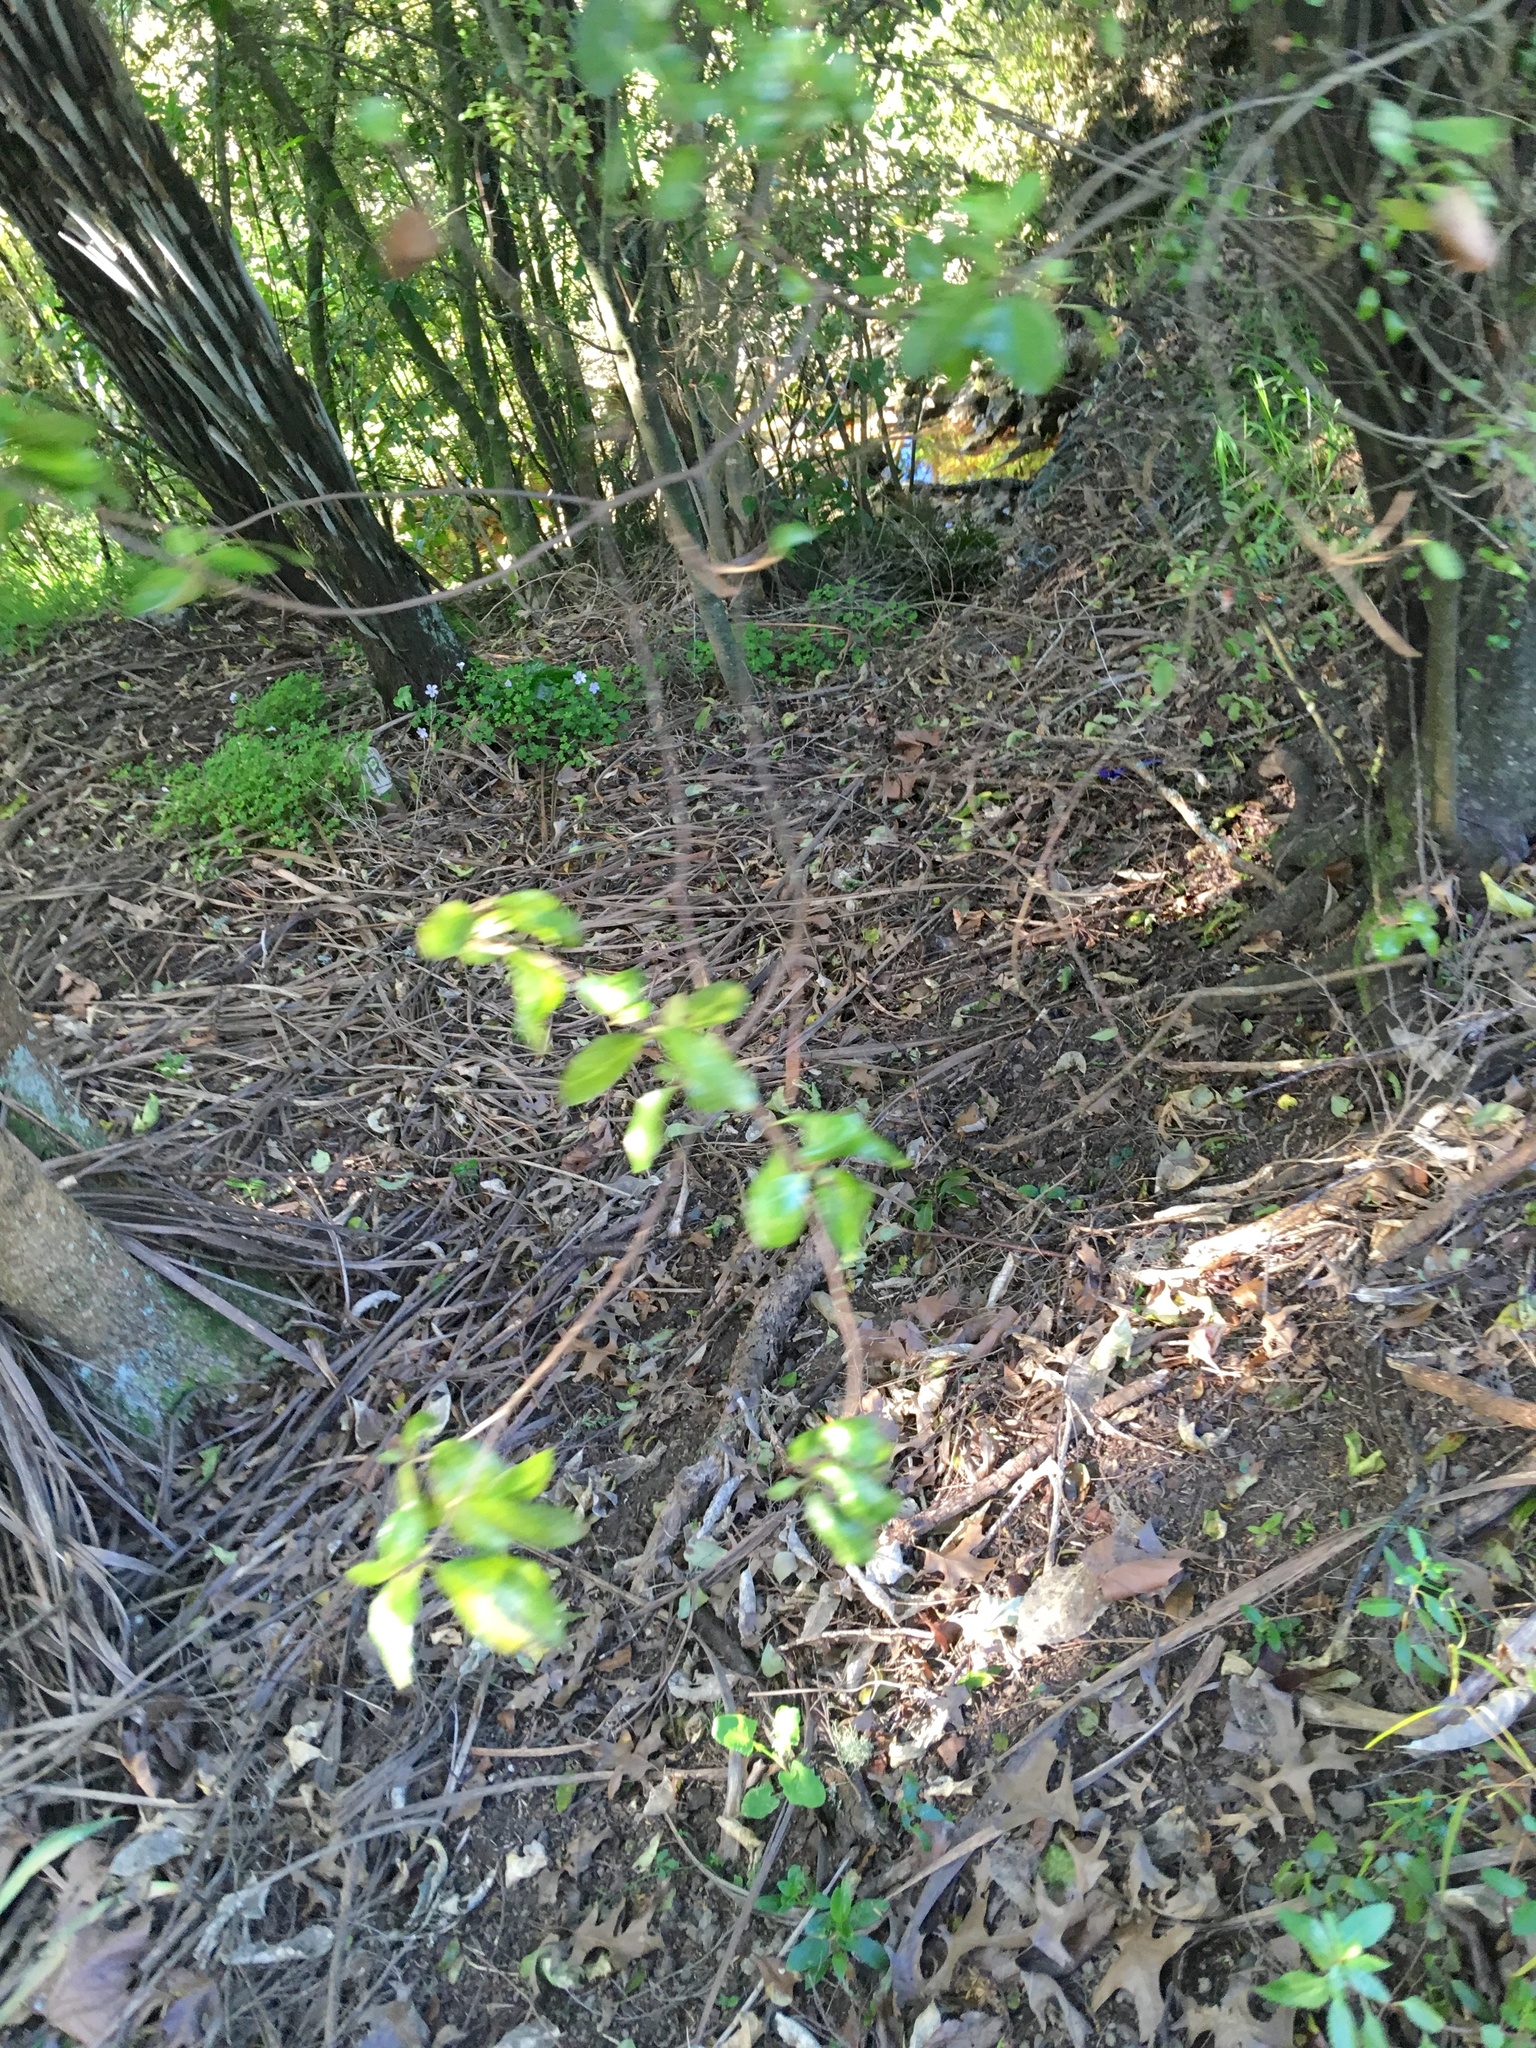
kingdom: Plantae
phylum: Tracheophyta
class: Magnoliopsida
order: Oxalidales
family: Oxalidaceae
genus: Oxalis
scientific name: Oxalis incarnata
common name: Pale pink-sorrel
